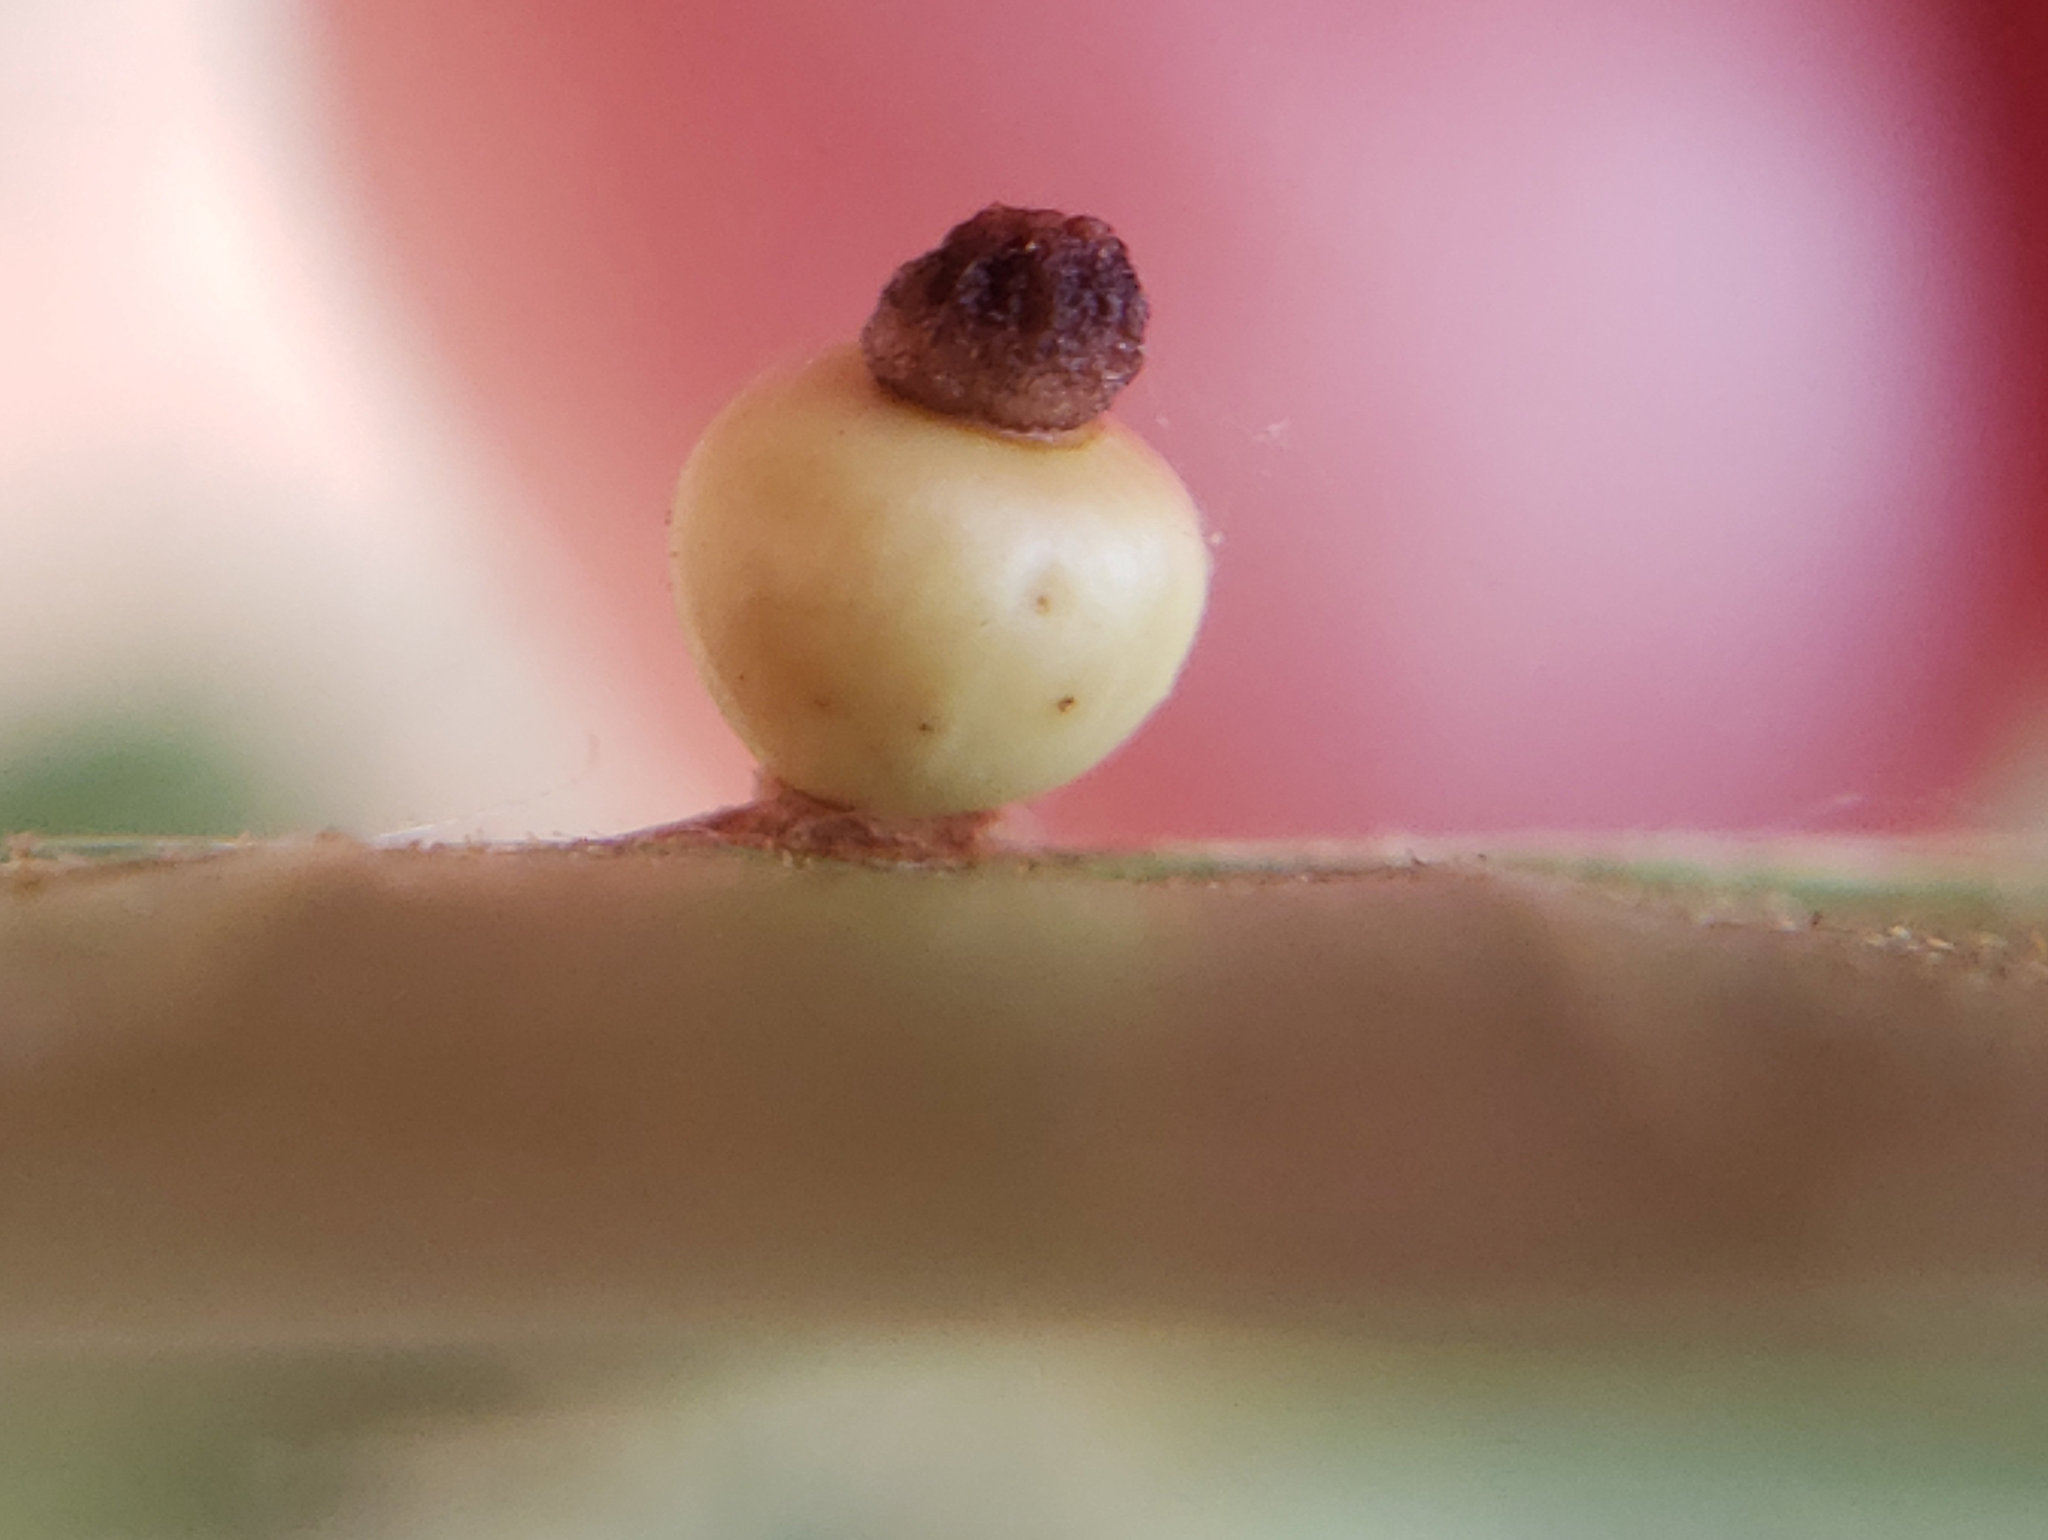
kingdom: Animalia
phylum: Arthropoda
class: Insecta
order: Hymenoptera
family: Cynipidae
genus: Callirhytis
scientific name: Callirhytis
